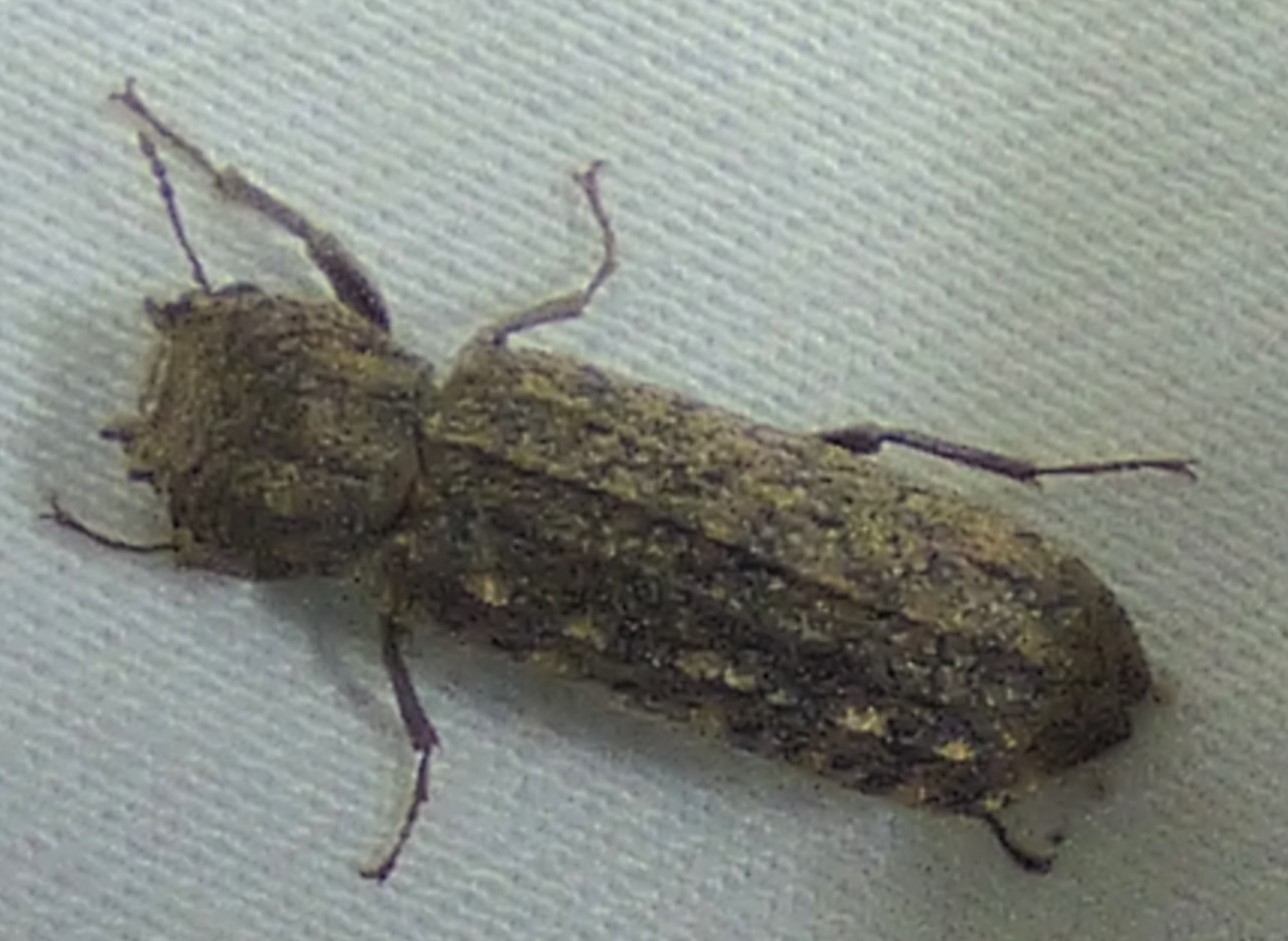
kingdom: Animalia
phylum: Arthropoda
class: Insecta
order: Coleoptera
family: Bostrichidae
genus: Lichenophanes
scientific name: Lichenophanes bicornis
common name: Two-horned powder-post beetle
